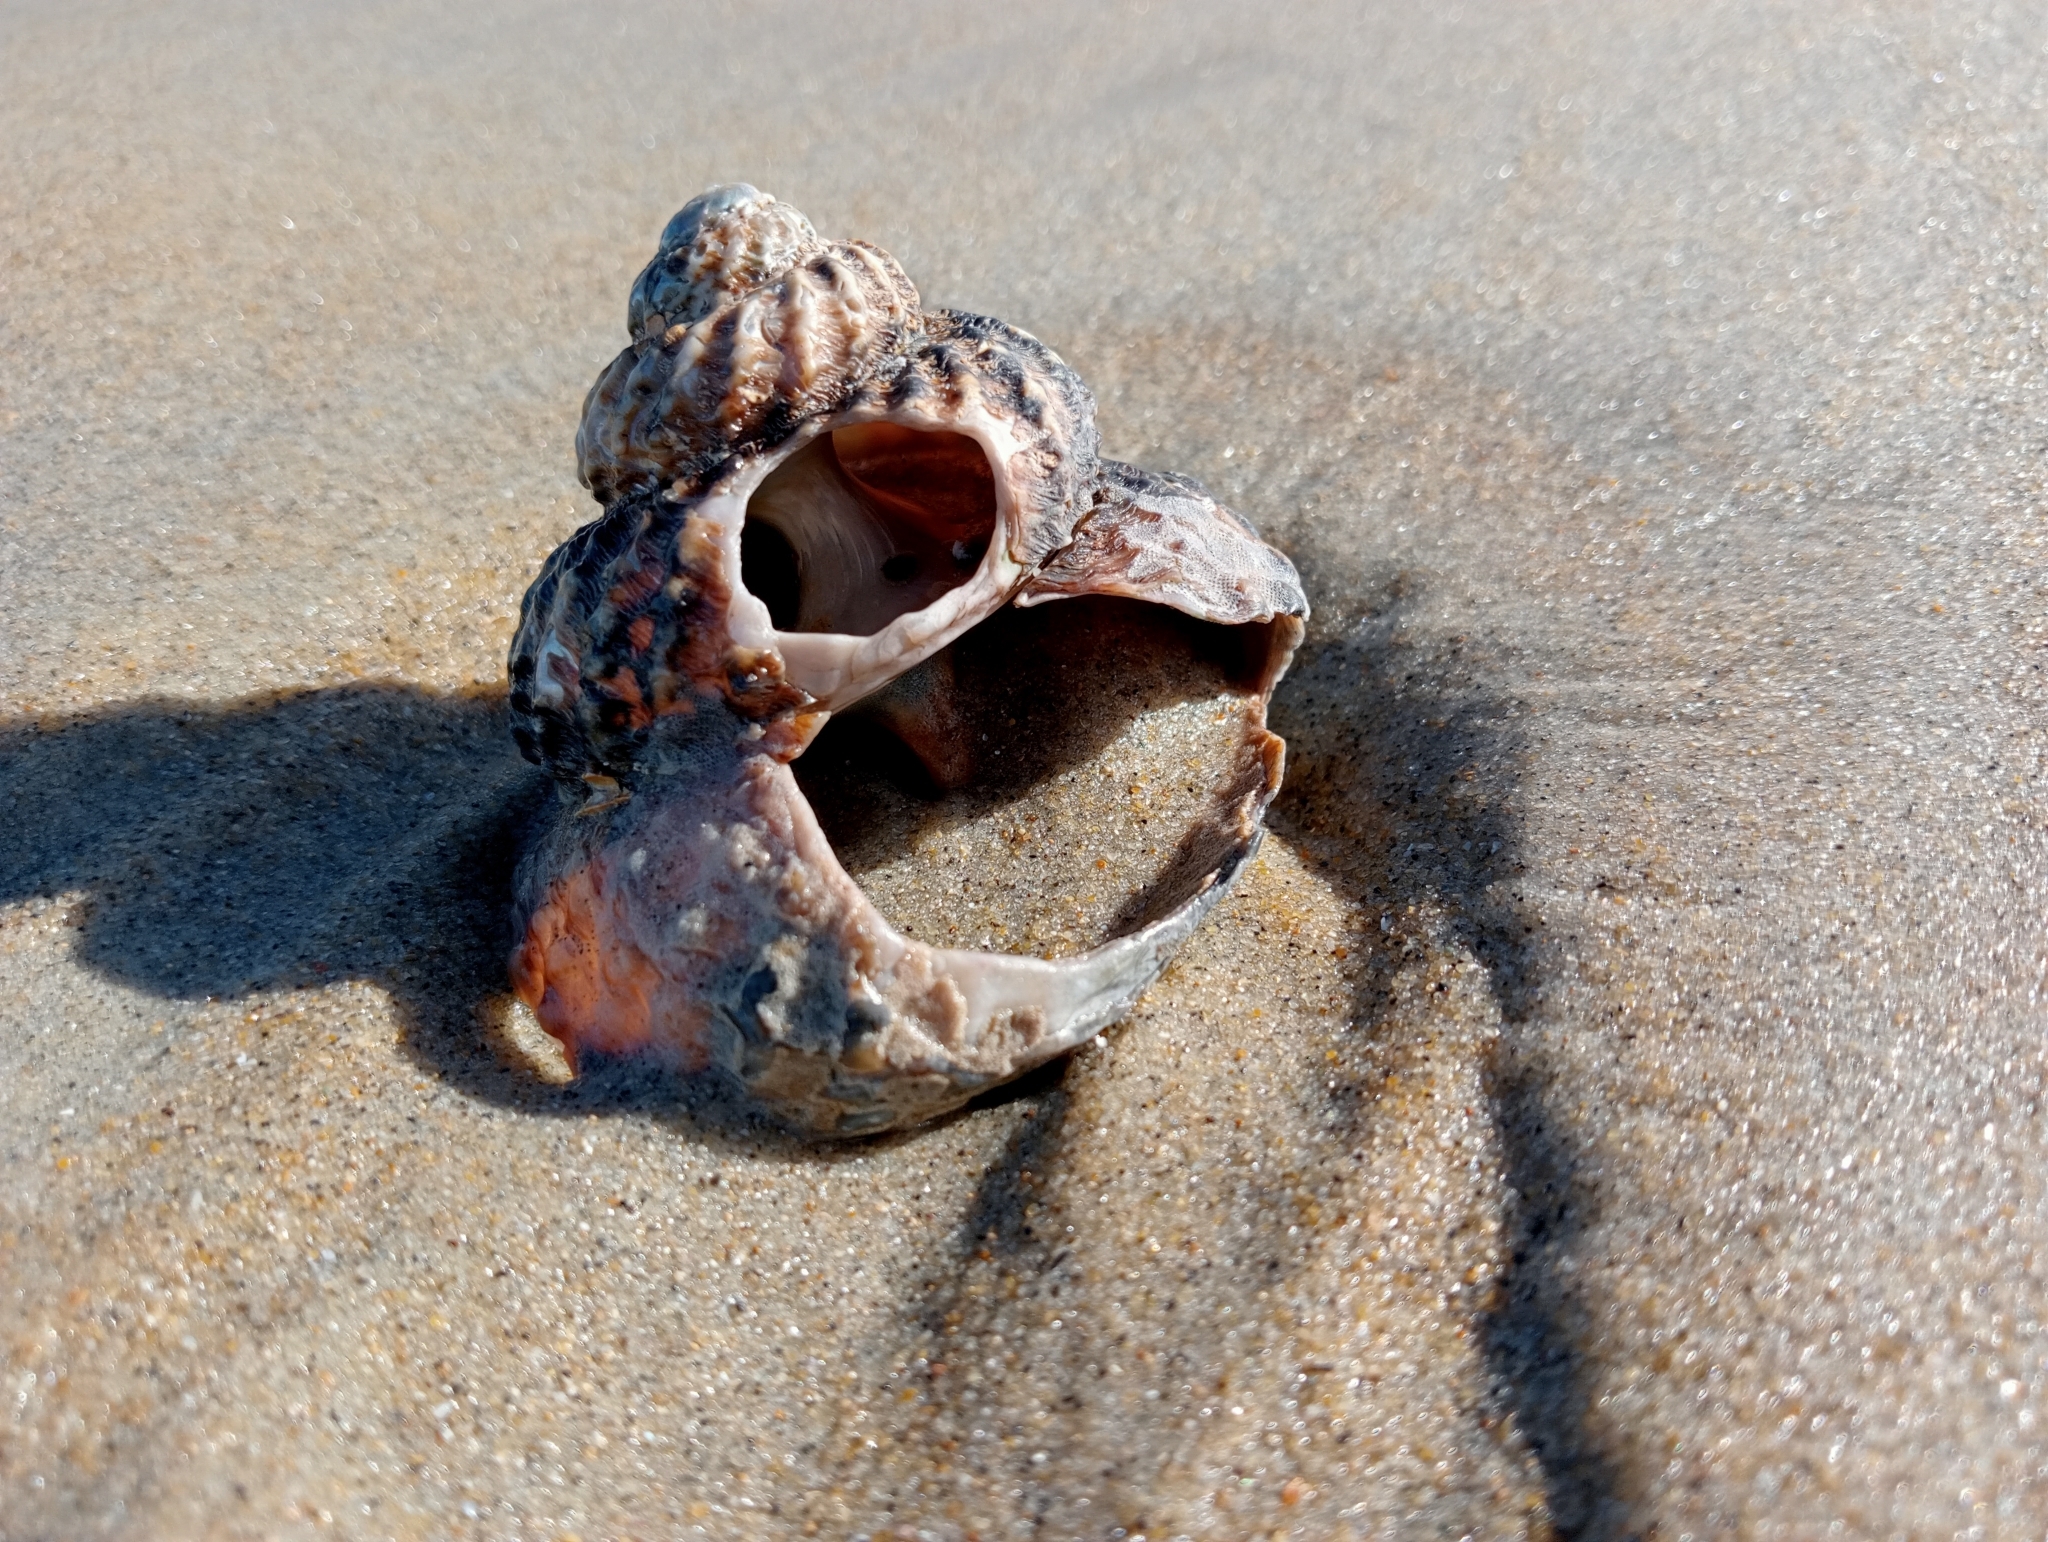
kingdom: Animalia
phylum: Mollusca
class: Gastropoda
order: Trochida
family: Turbinidae
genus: Cookia
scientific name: Cookia sulcata
